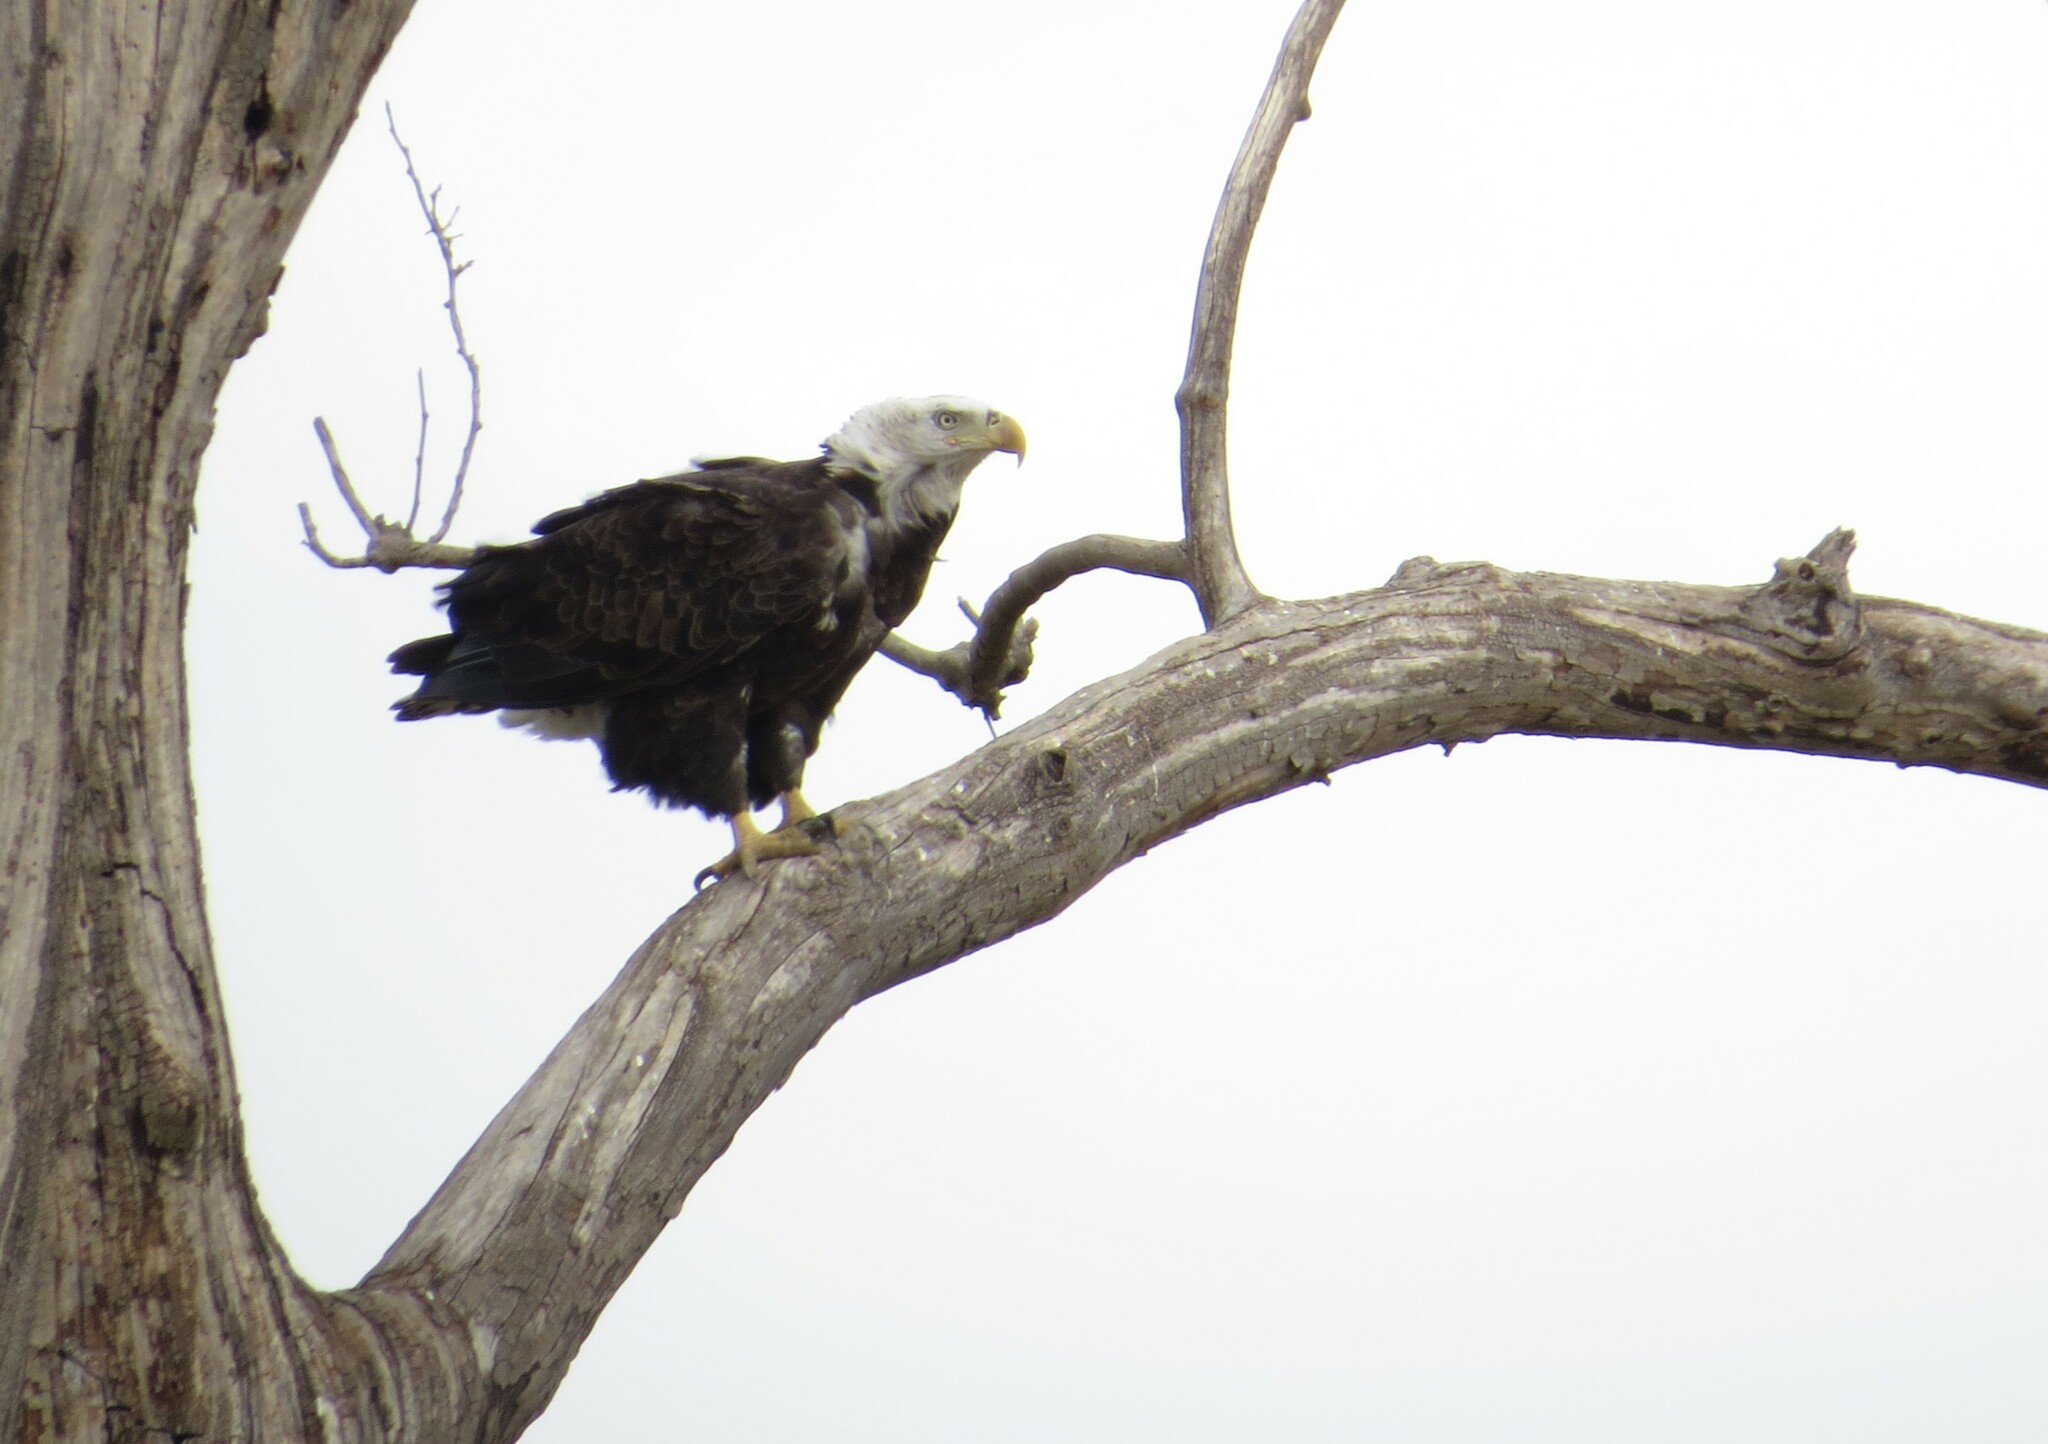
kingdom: Animalia
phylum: Chordata
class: Aves
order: Accipitriformes
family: Accipitridae
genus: Haliaeetus
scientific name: Haliaeetus leucocephalus
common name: Bald eagle
